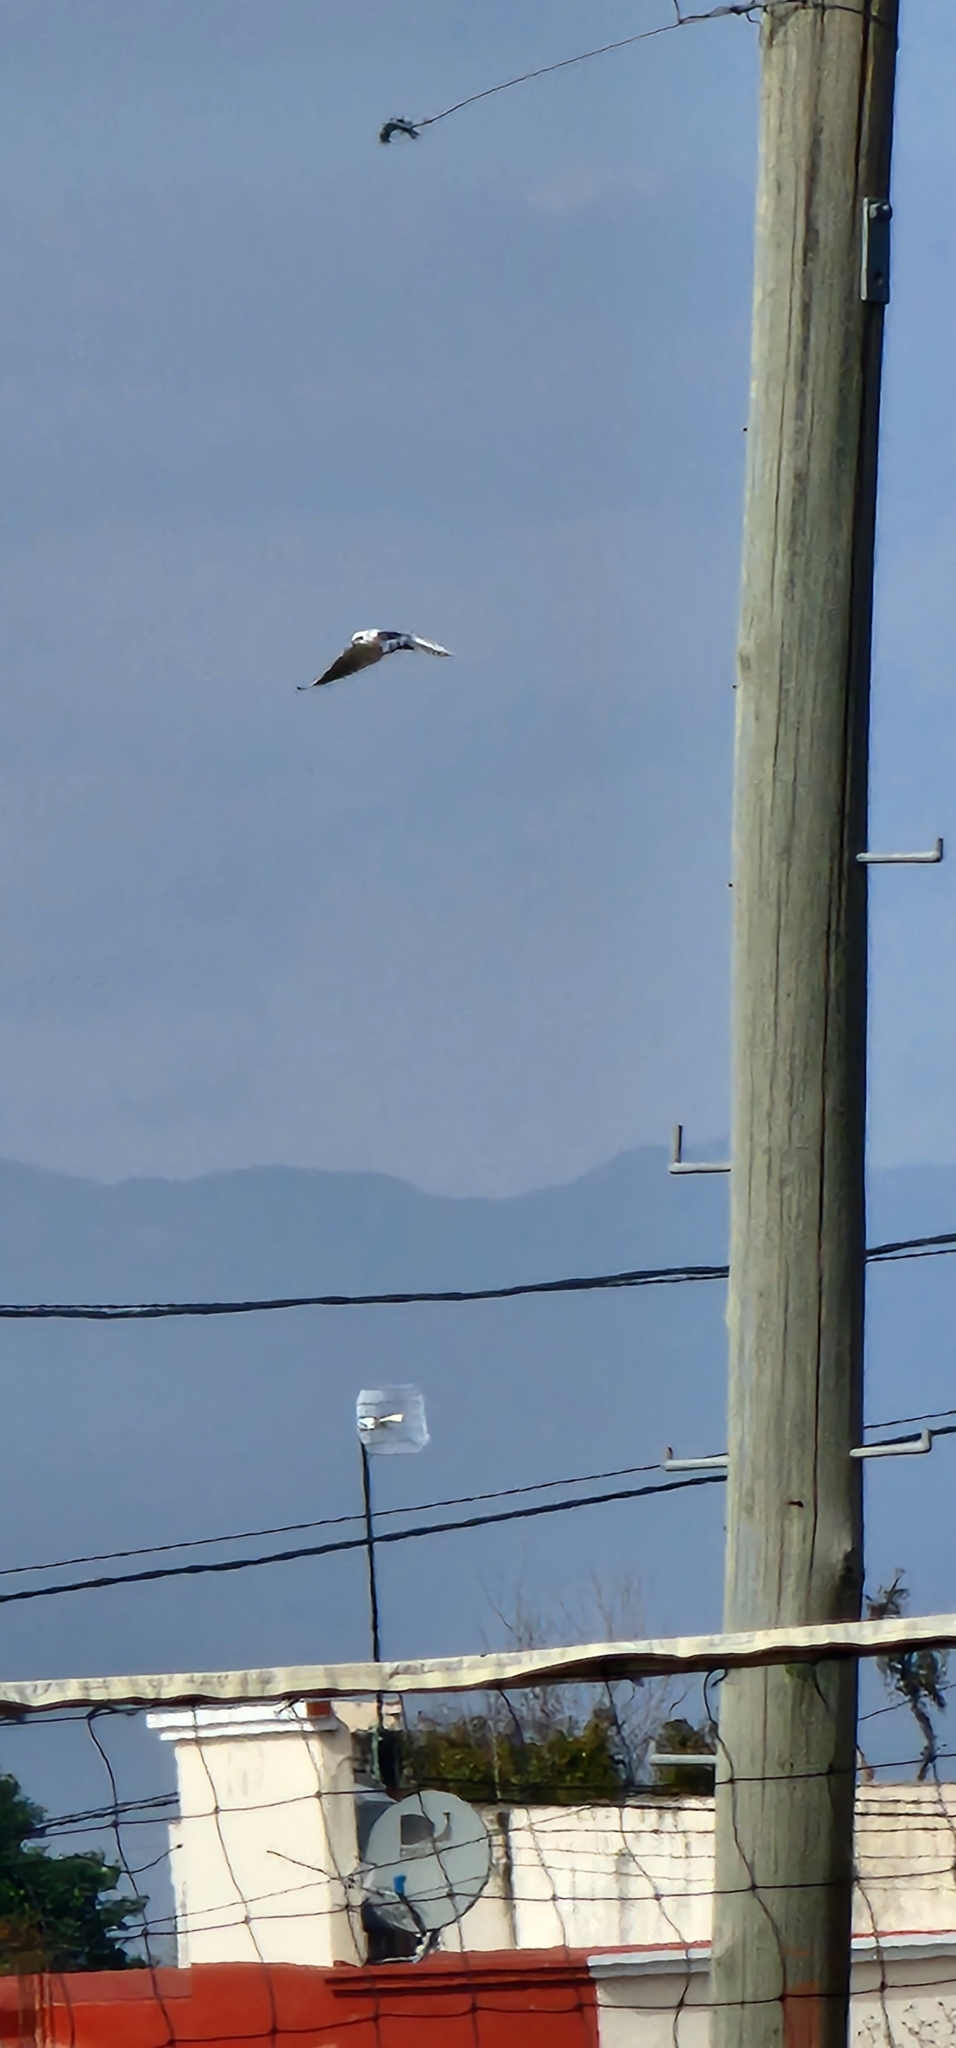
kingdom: Animalia
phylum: Chordata
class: Aves
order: Accipitriformes
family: Accipitridae
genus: Elanus
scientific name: Elanus leucurus
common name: White-tailed kite
